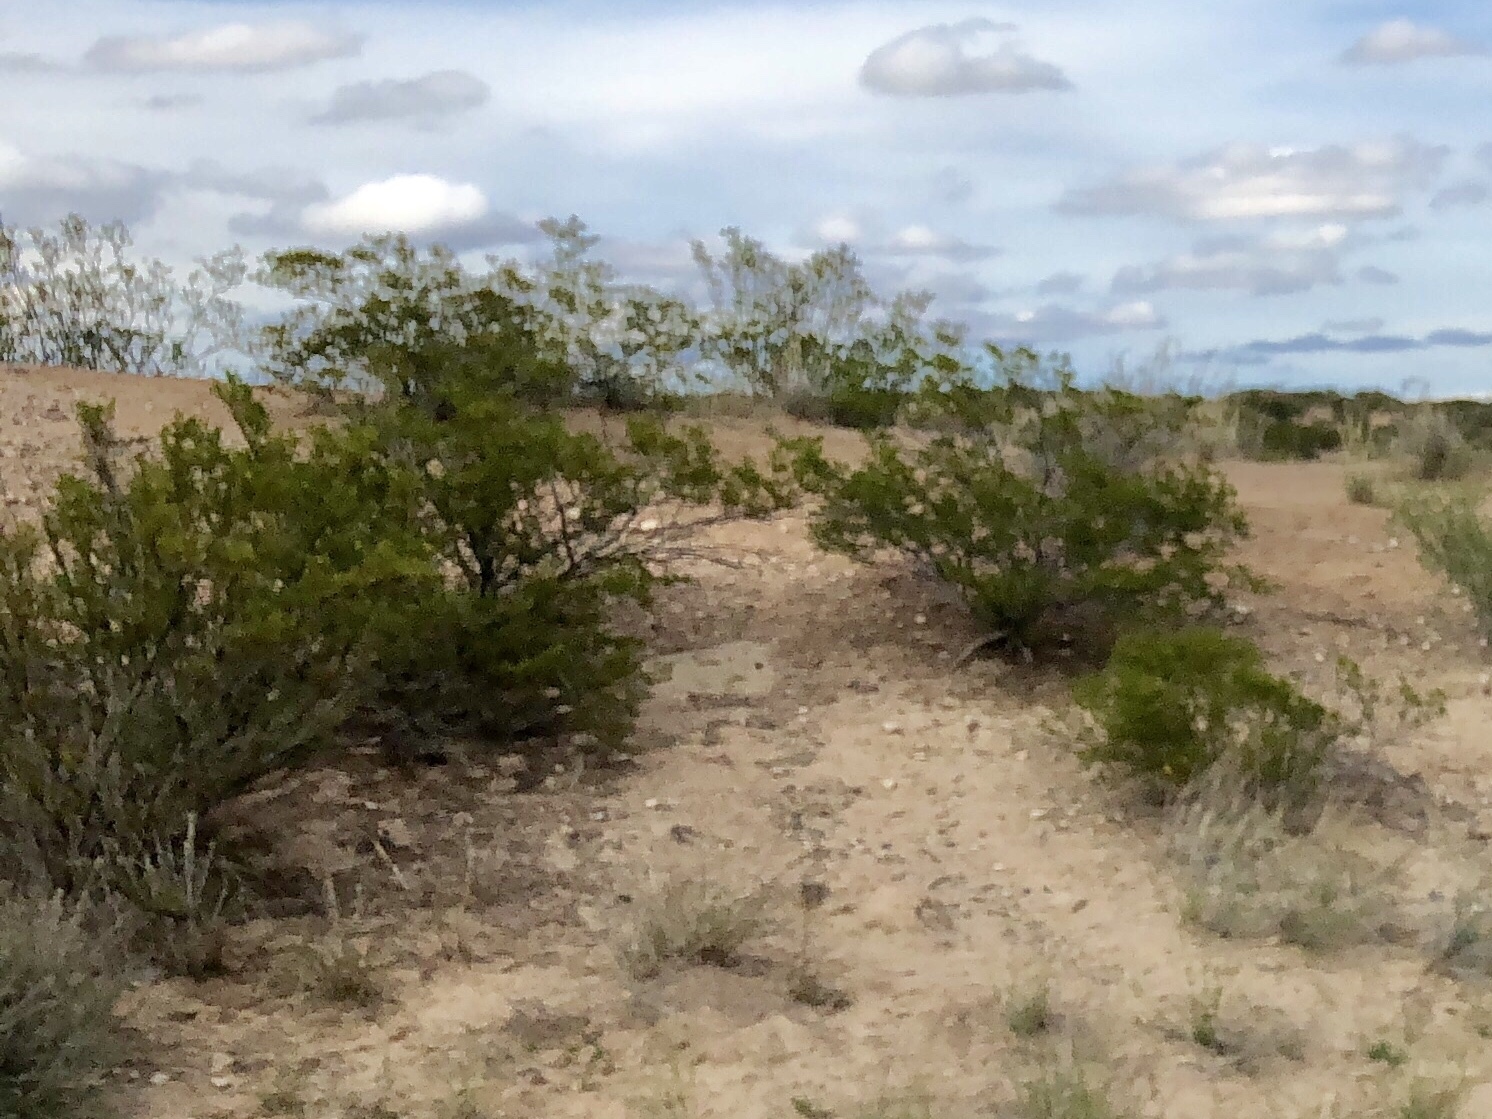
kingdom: Plantae
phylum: Tracheophyta
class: Magnoliopsida
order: Zygophyllales
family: Zygophyllaceae
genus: Larrea
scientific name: Larrea tridentata
